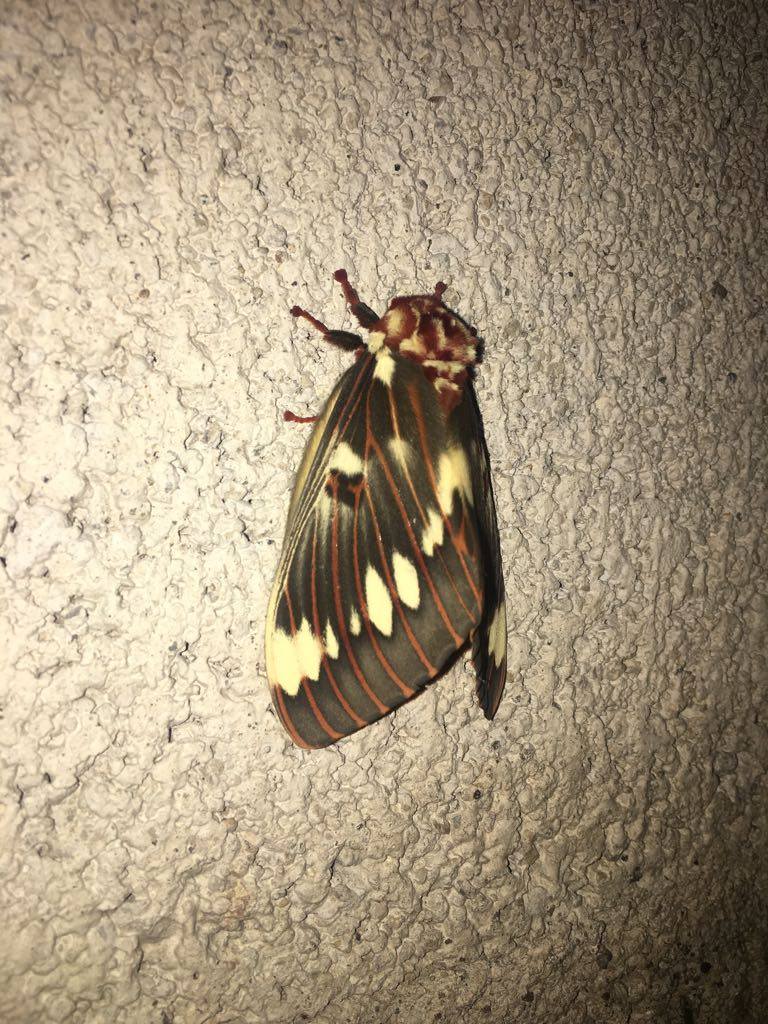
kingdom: Animalia
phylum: Arthropoda
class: Insecta
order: Lepidoptera
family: Saturniidae
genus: Citheronia
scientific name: Citheronia splendens
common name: Splendid royal moth
